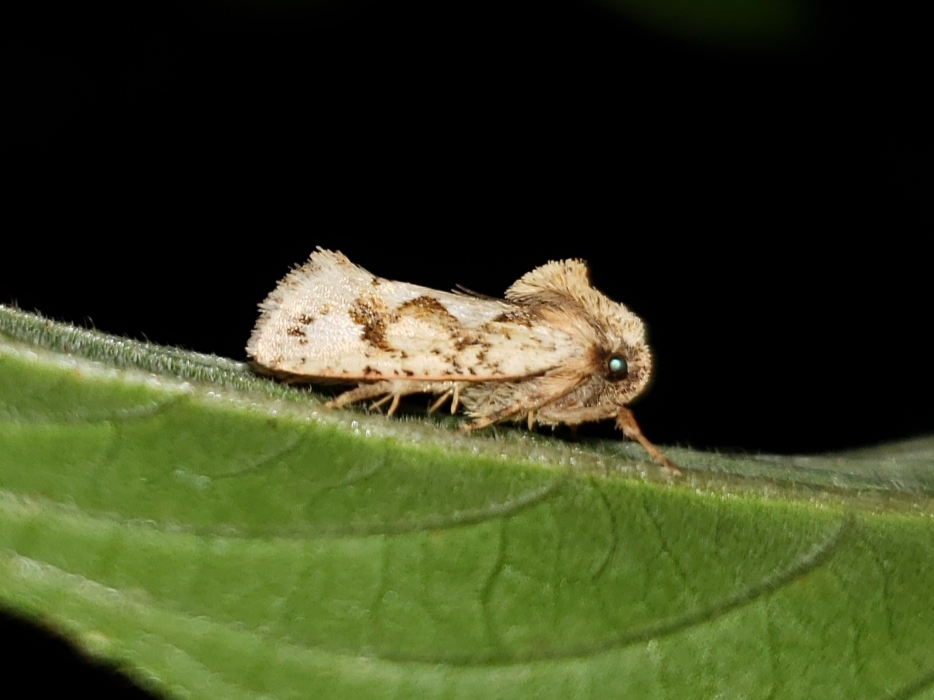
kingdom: Animalia
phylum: Arthropoda
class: Insecta
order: Lepidoptera
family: Tineidae
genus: Acrolophus
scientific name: Acrolophus walsinghami
